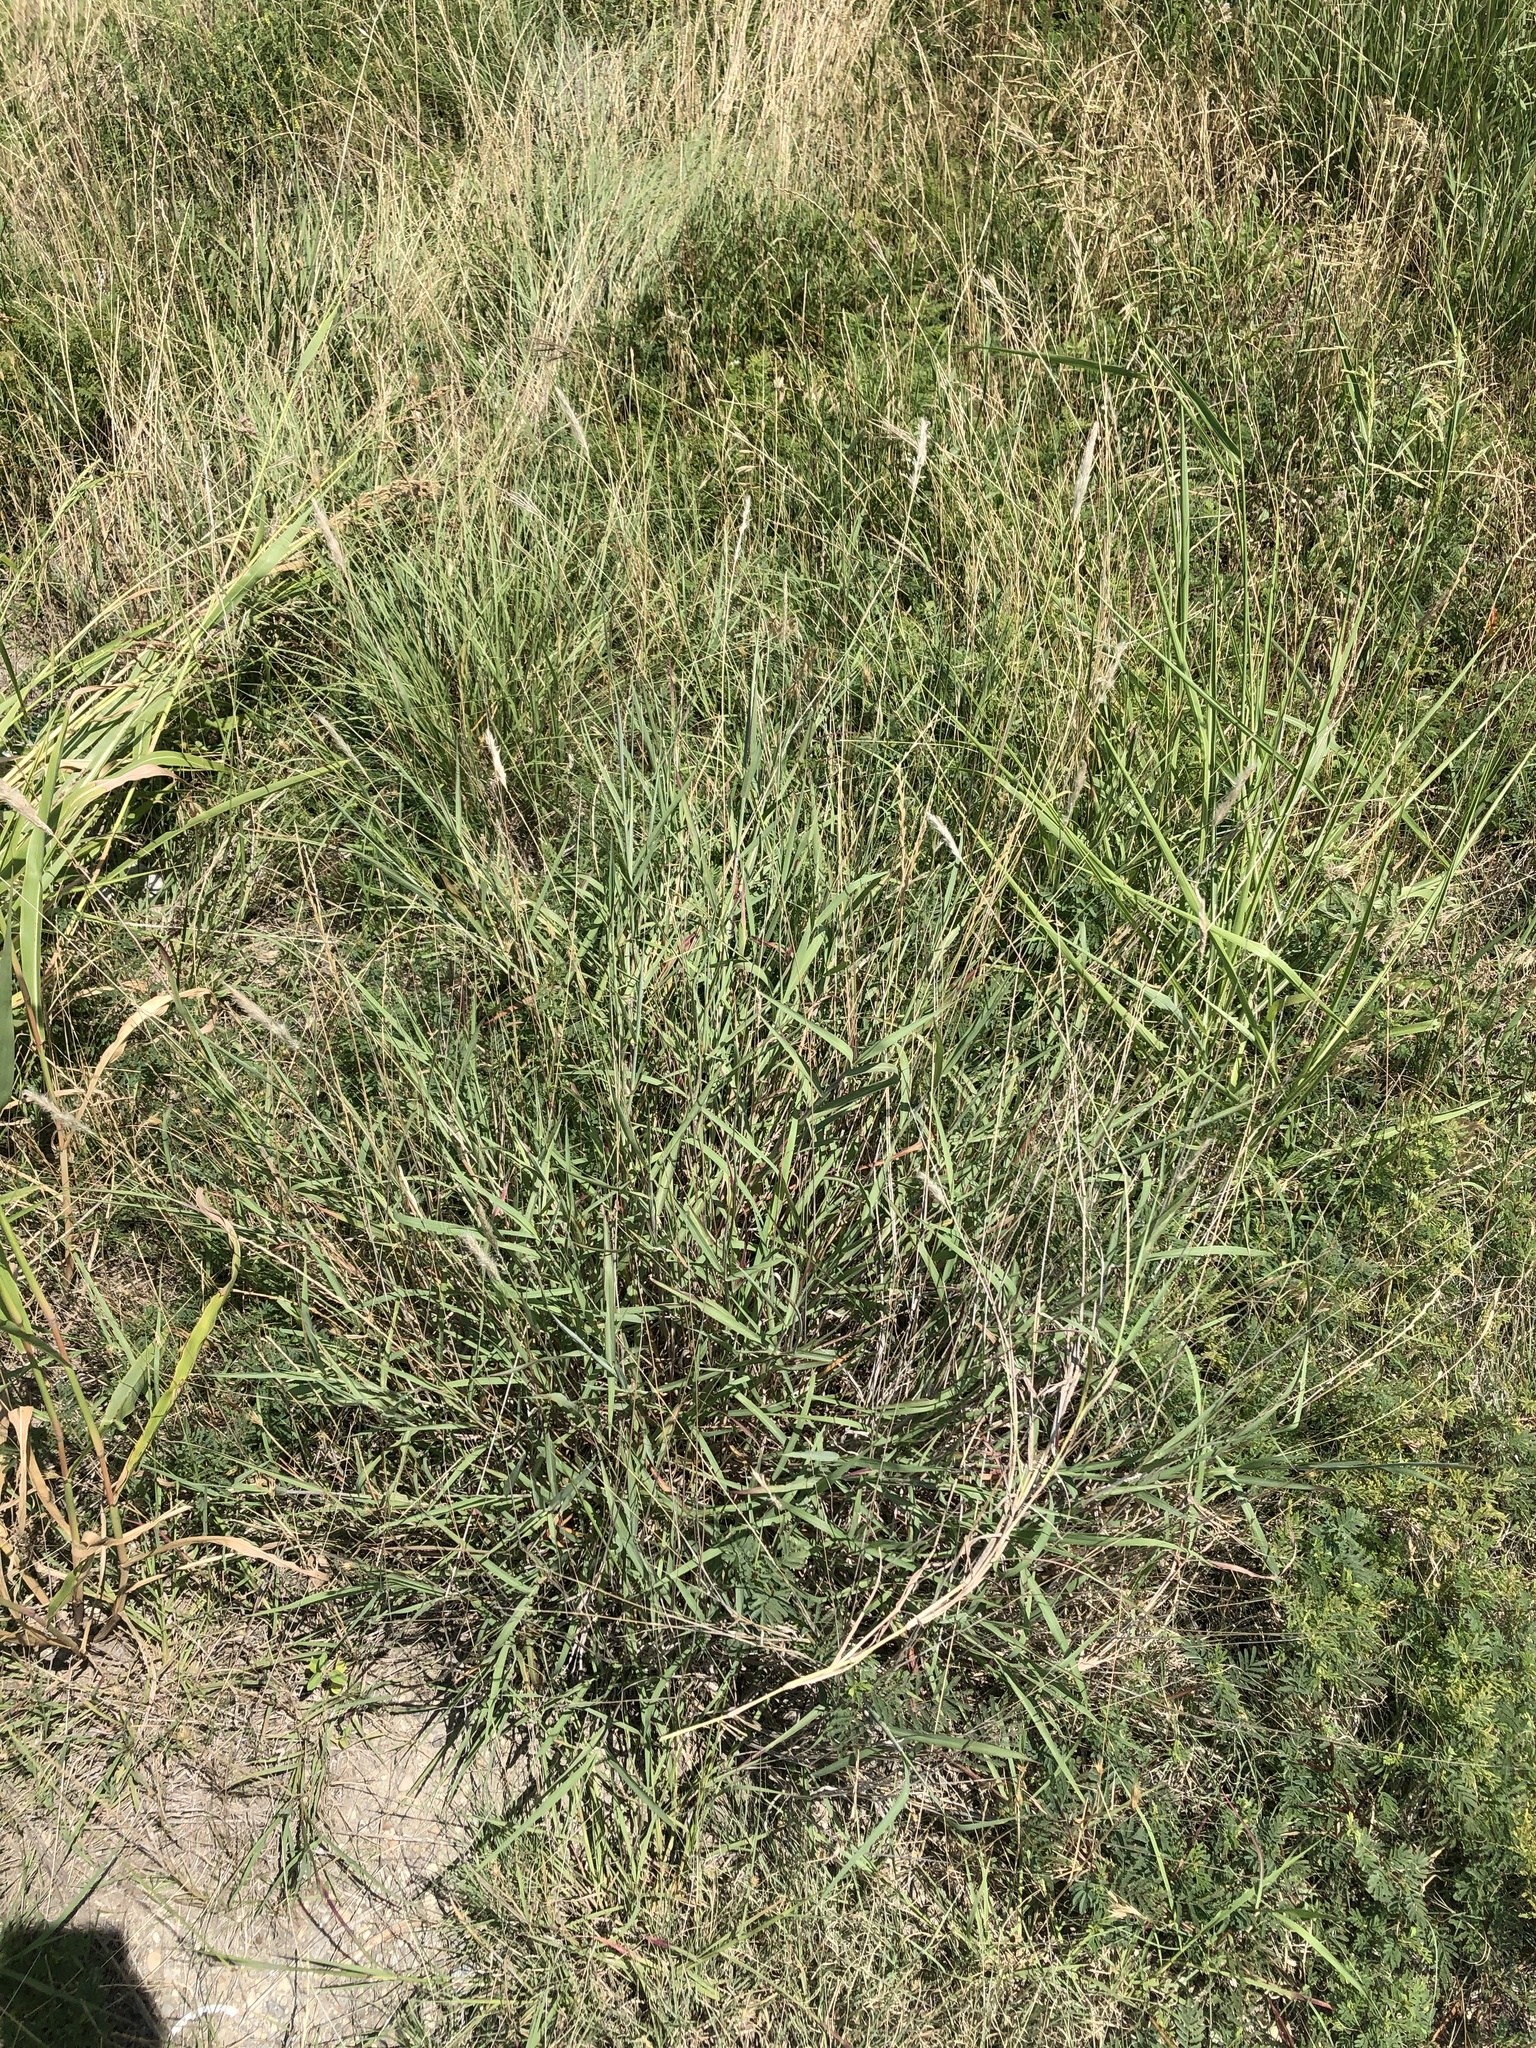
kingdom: Plantae
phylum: Tracheophyta
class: Liliopsida
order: Poales
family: Poaceae
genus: Bothriochloa
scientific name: Bothriochloa torreyana
